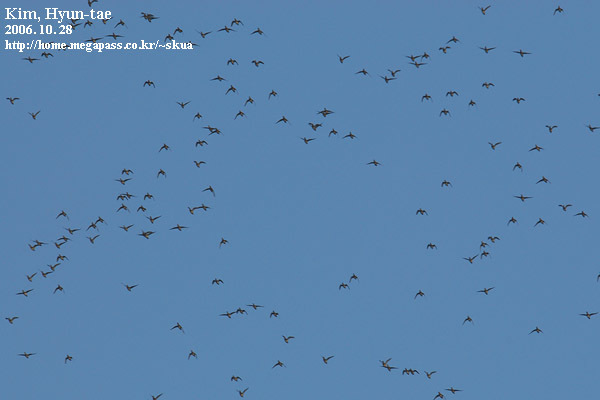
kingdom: Animalia
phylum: Chordata
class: Aves
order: Anseriformes
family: Anatidae
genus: Sibirionetta
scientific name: Sibirionetta formosa
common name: Baikal teal
